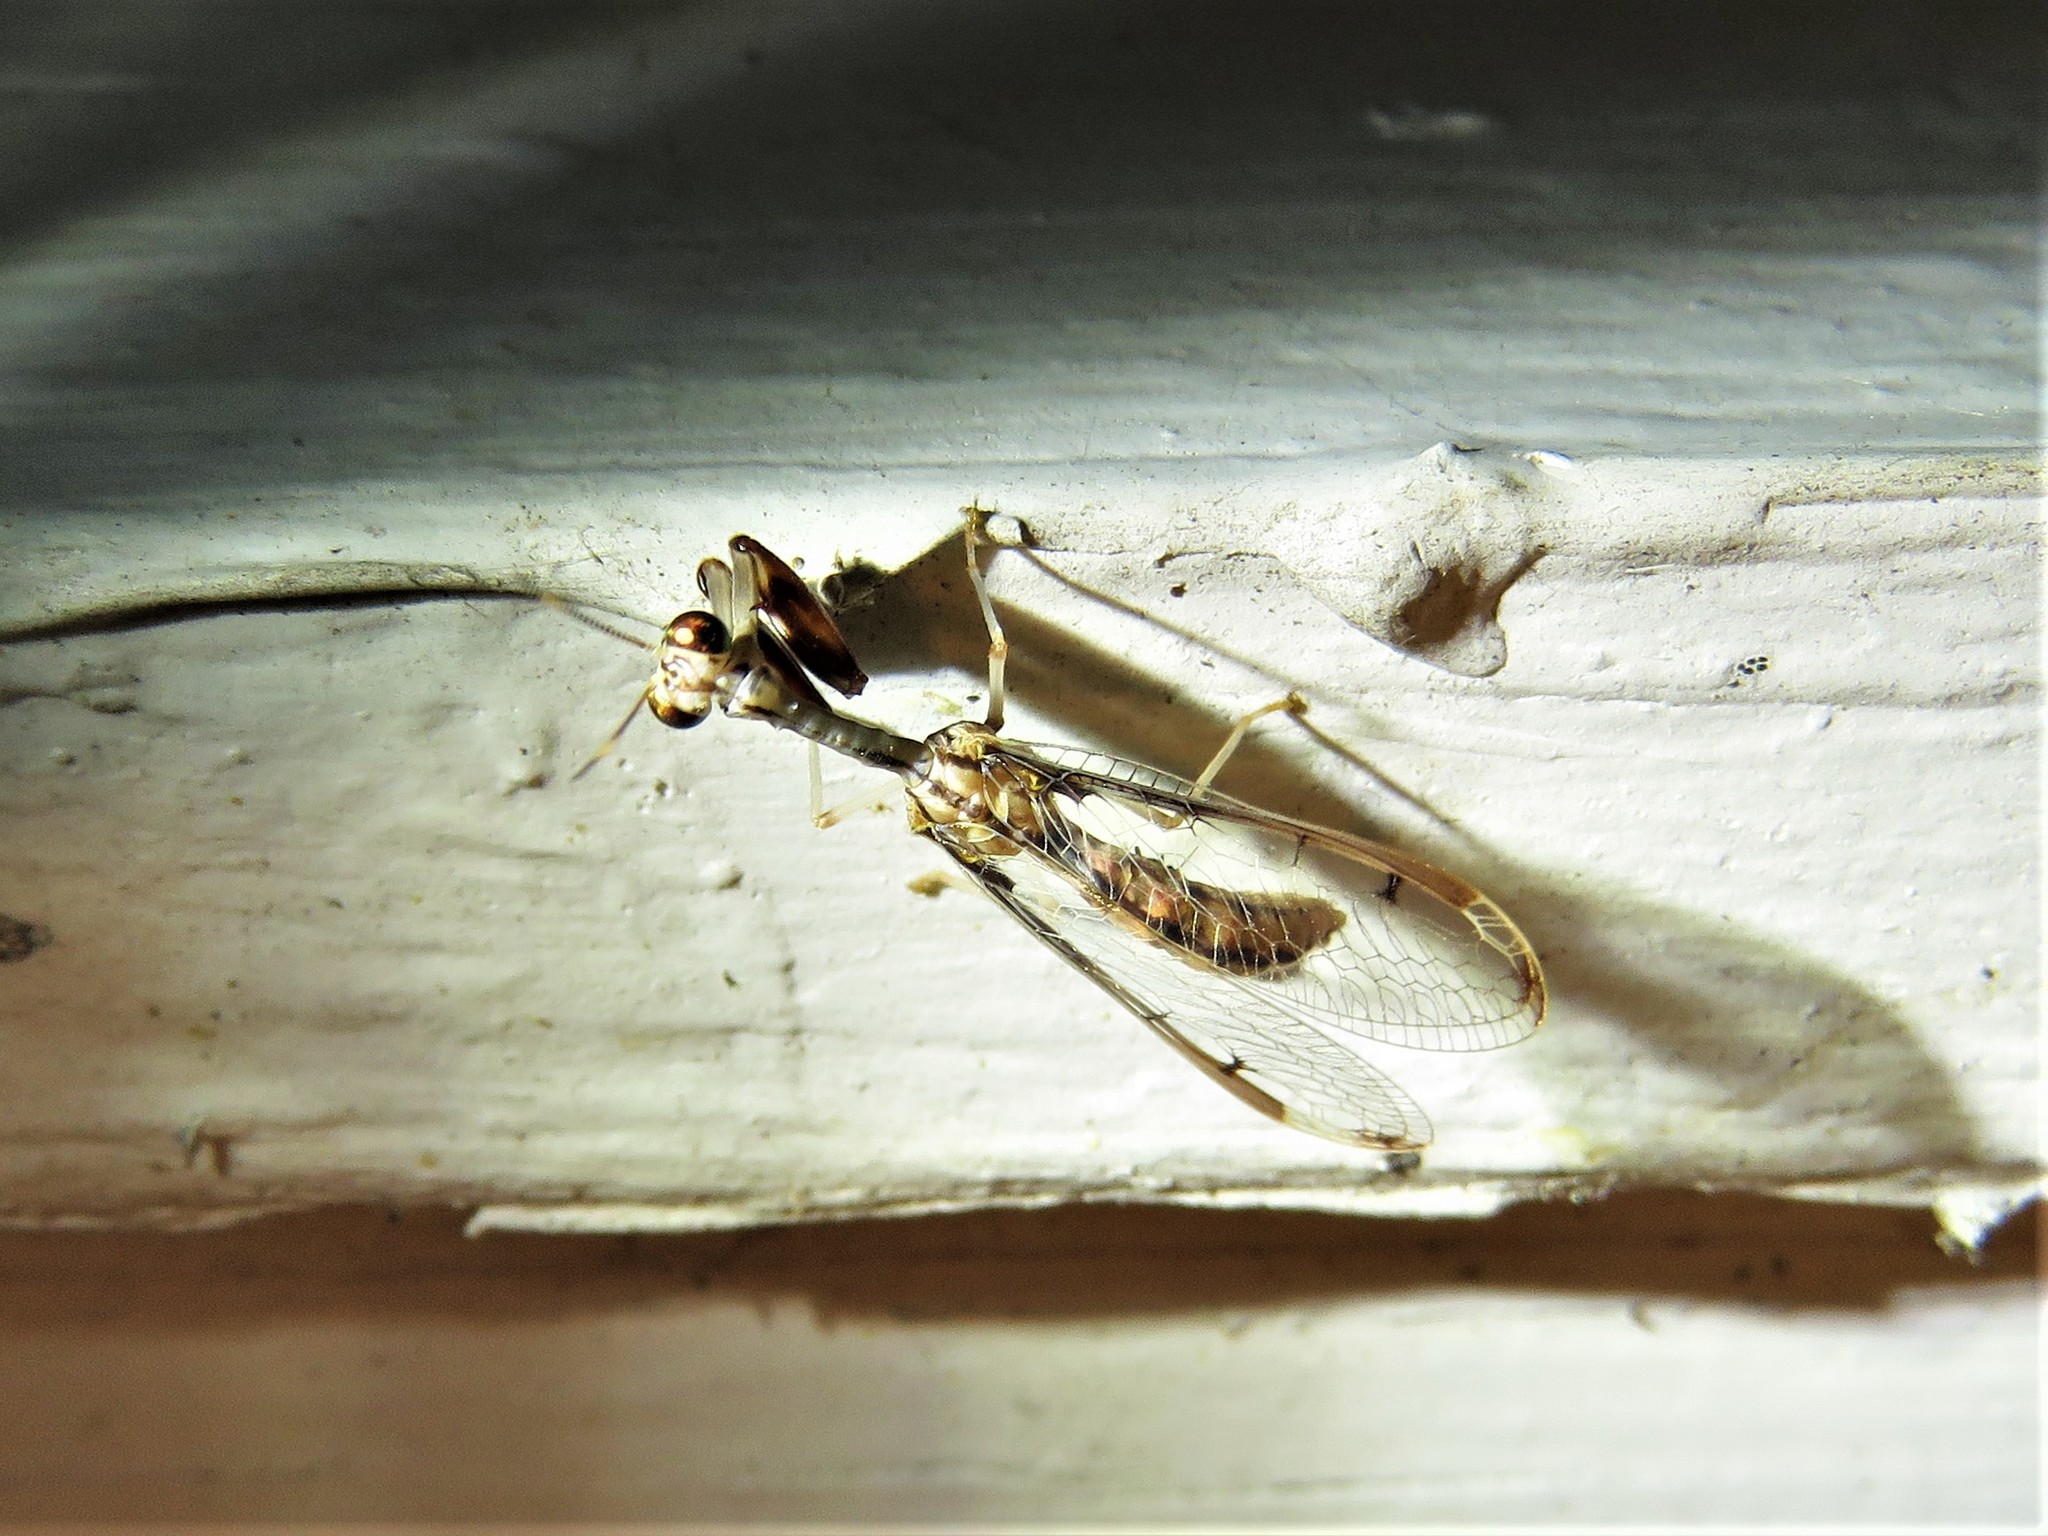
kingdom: Animalia
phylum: Arthropoda
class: Insecta
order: Neuroptera
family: Mantispidae
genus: Dicromantispa
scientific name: Dicromantispa interrupta
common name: Four-spotted mantidfly
